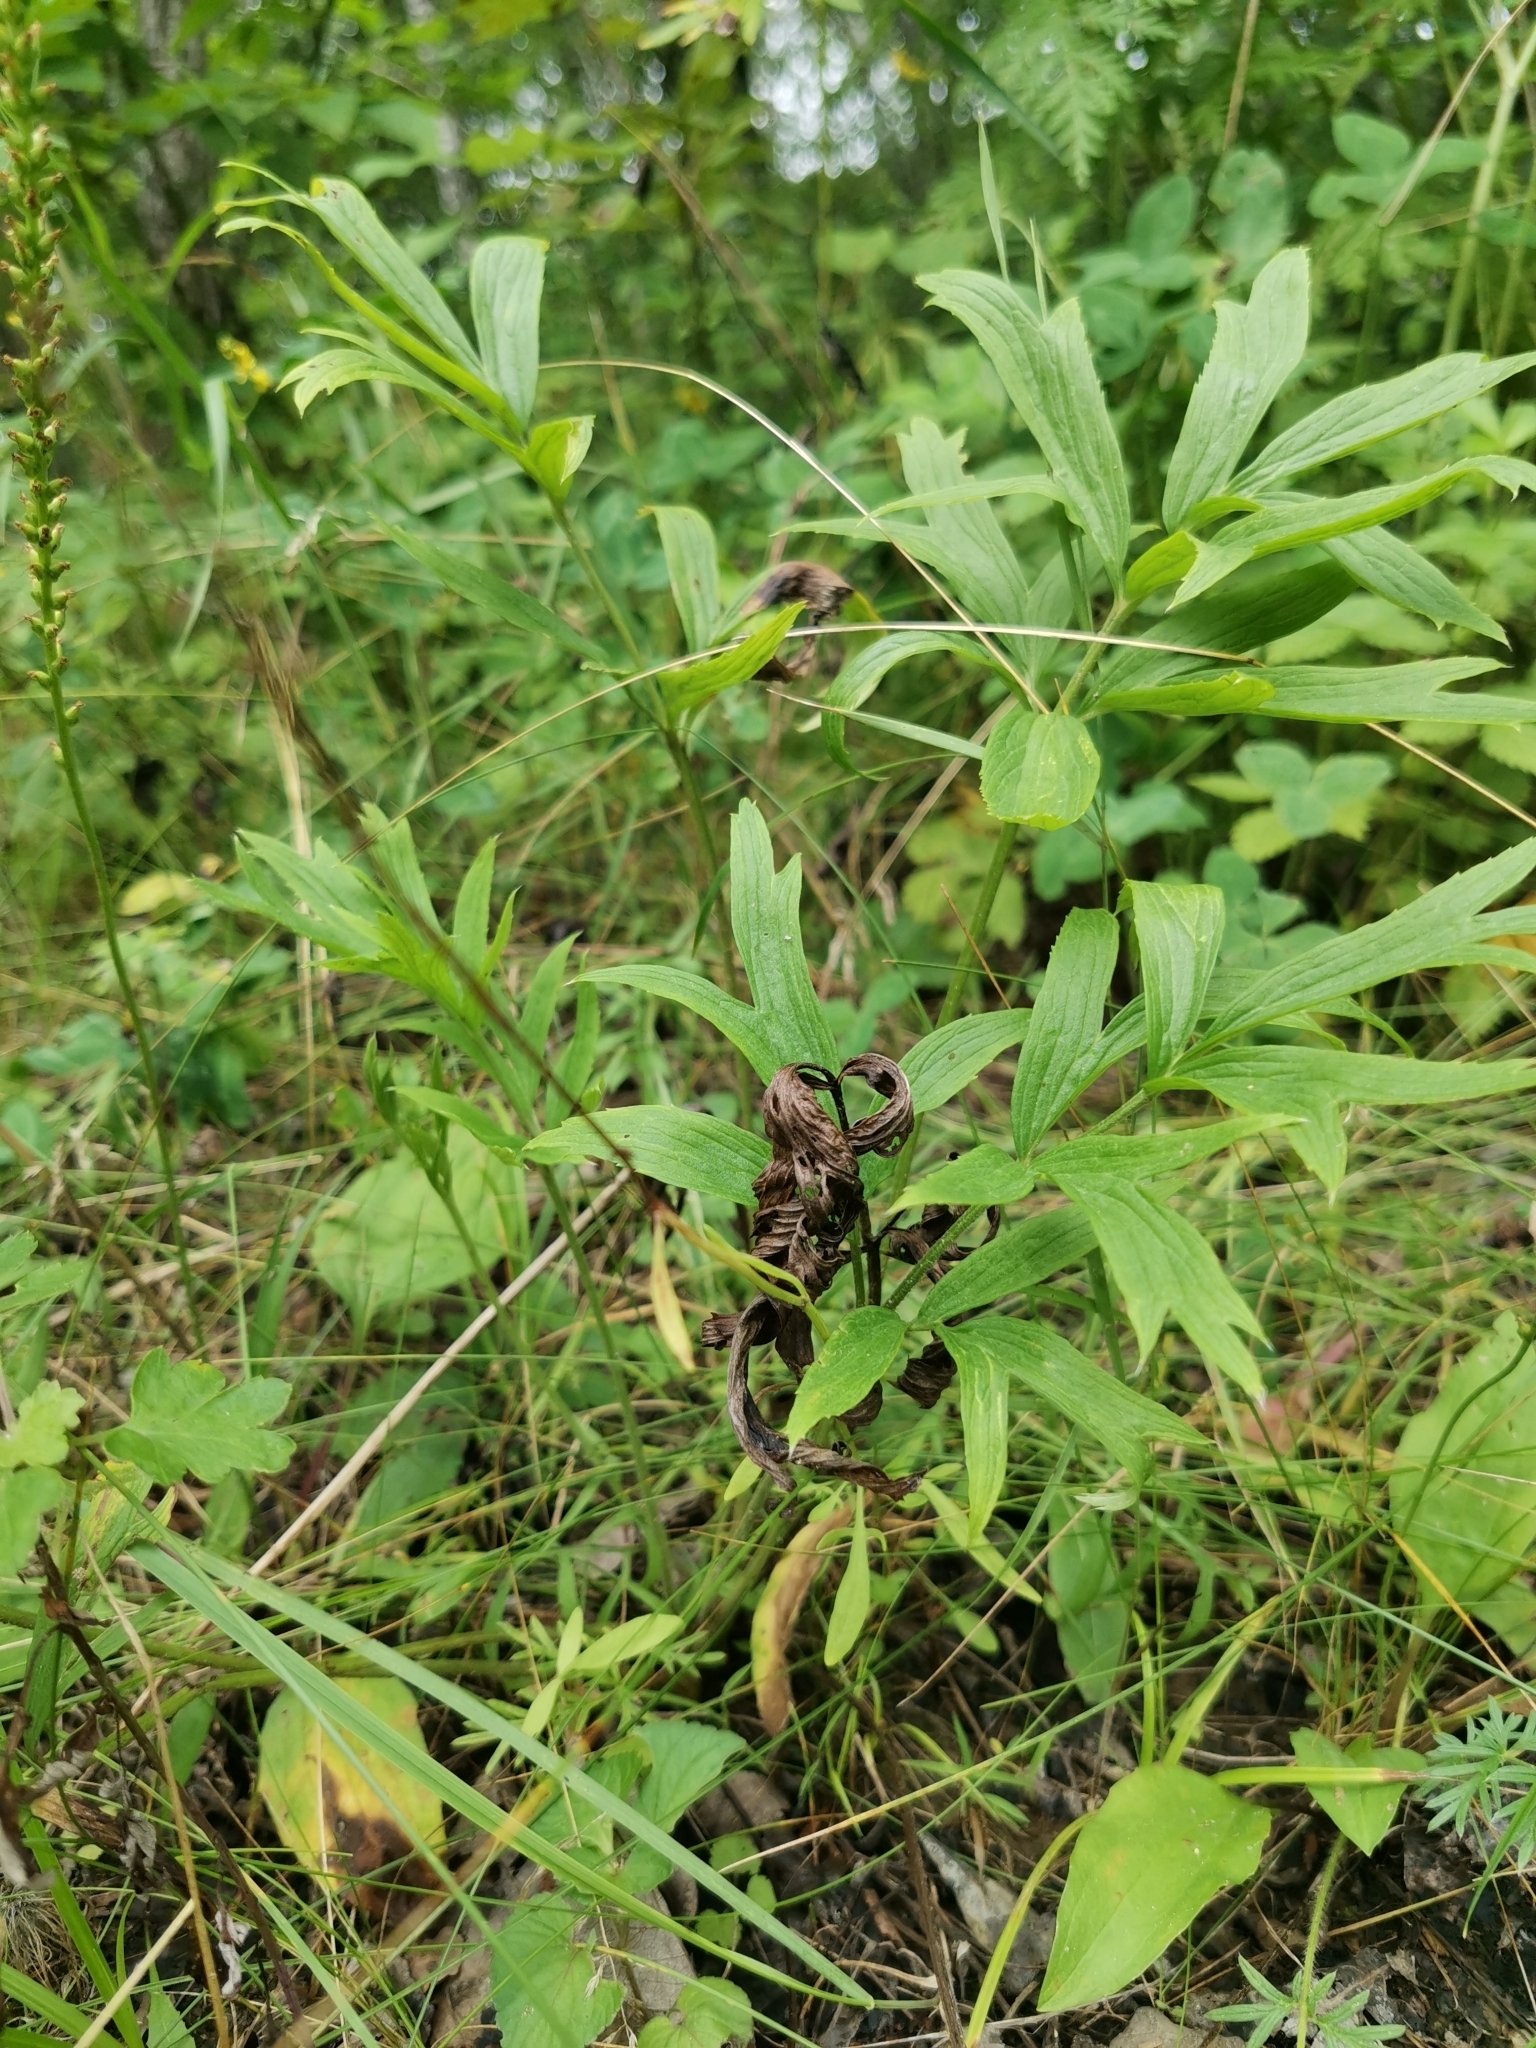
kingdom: Plantae
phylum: Tracheophyta
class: Magnoliopsida
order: Ranunculales
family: Ranunculaceae
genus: Pulsatilla
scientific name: Pulsatilla dahurica
